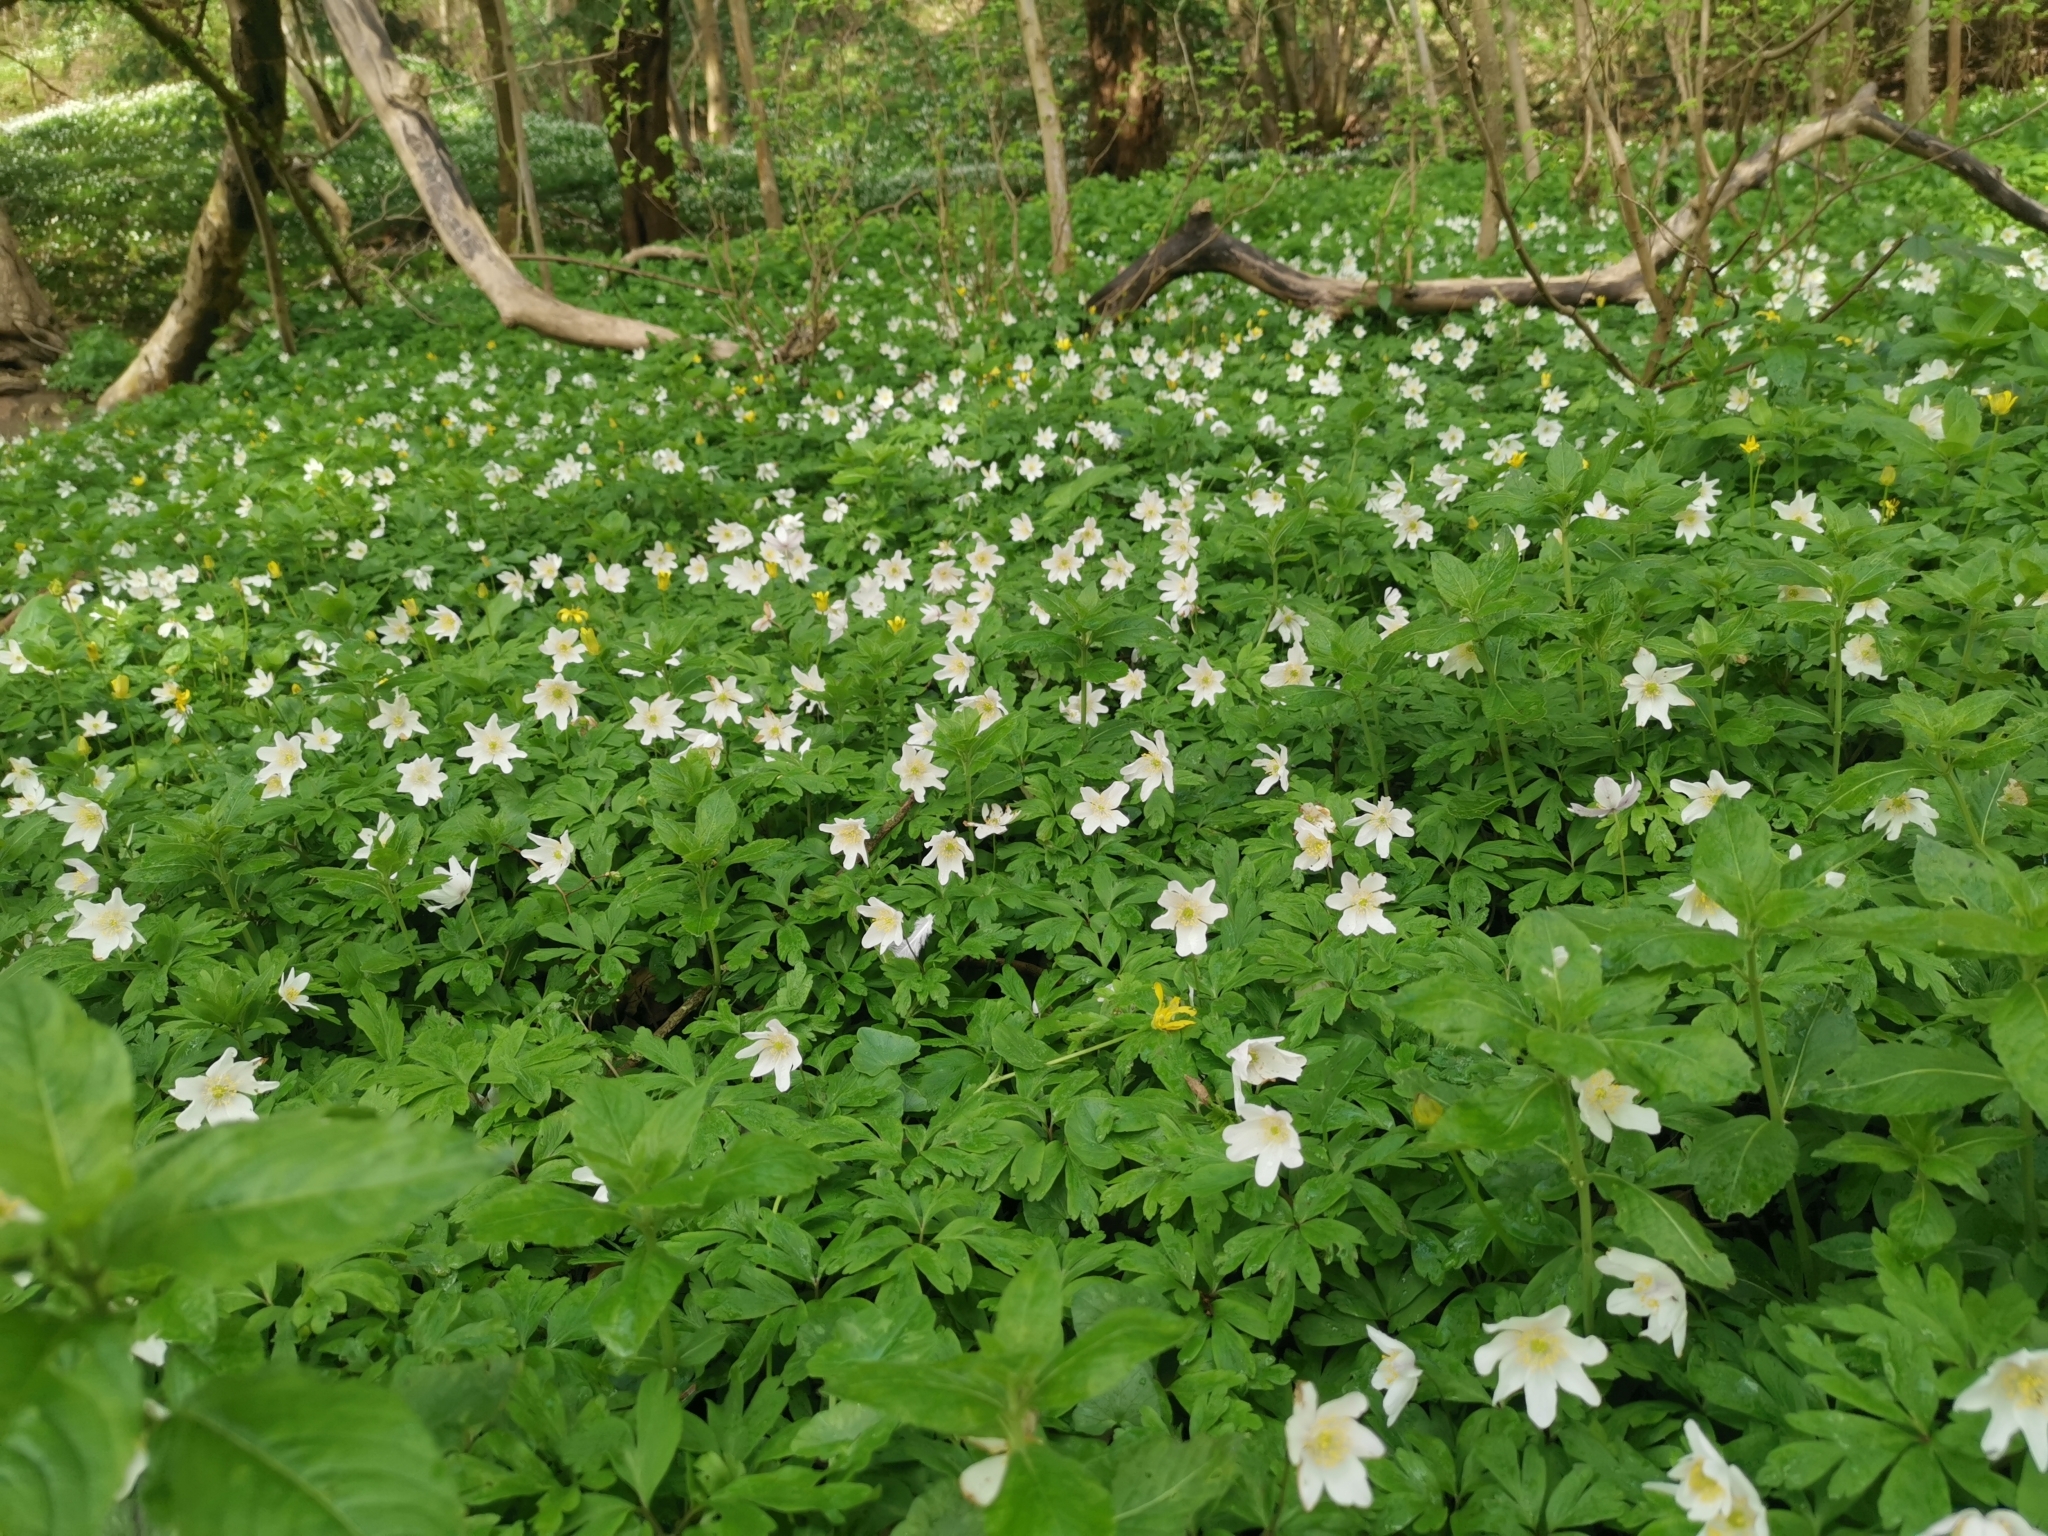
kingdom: Plantae
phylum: Tracheophyta
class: Magnoliopsida
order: Ranunculales
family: Ranunculaceae
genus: Anemone
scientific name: Anemone nemorosa
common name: Wood anemone
